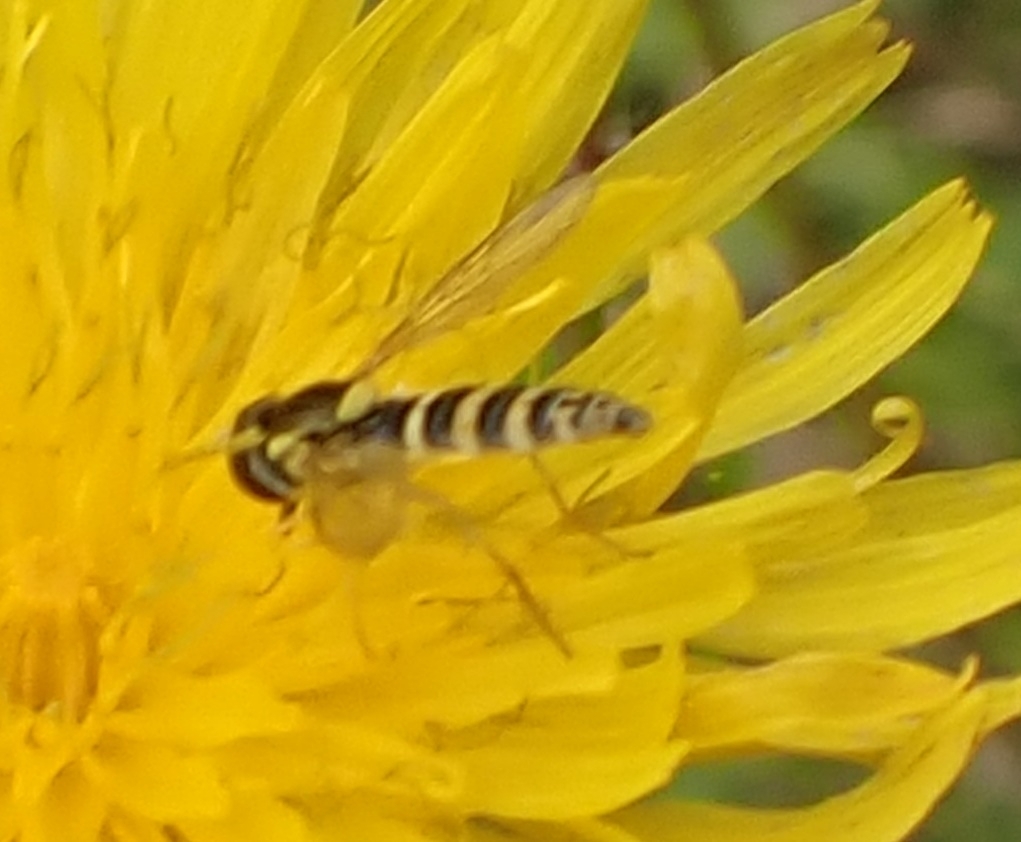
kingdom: Animalia
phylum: Arthropoda
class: Insecta
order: Diptera
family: Syrphidae
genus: Sphaerophoria
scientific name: Sphaerophoria
